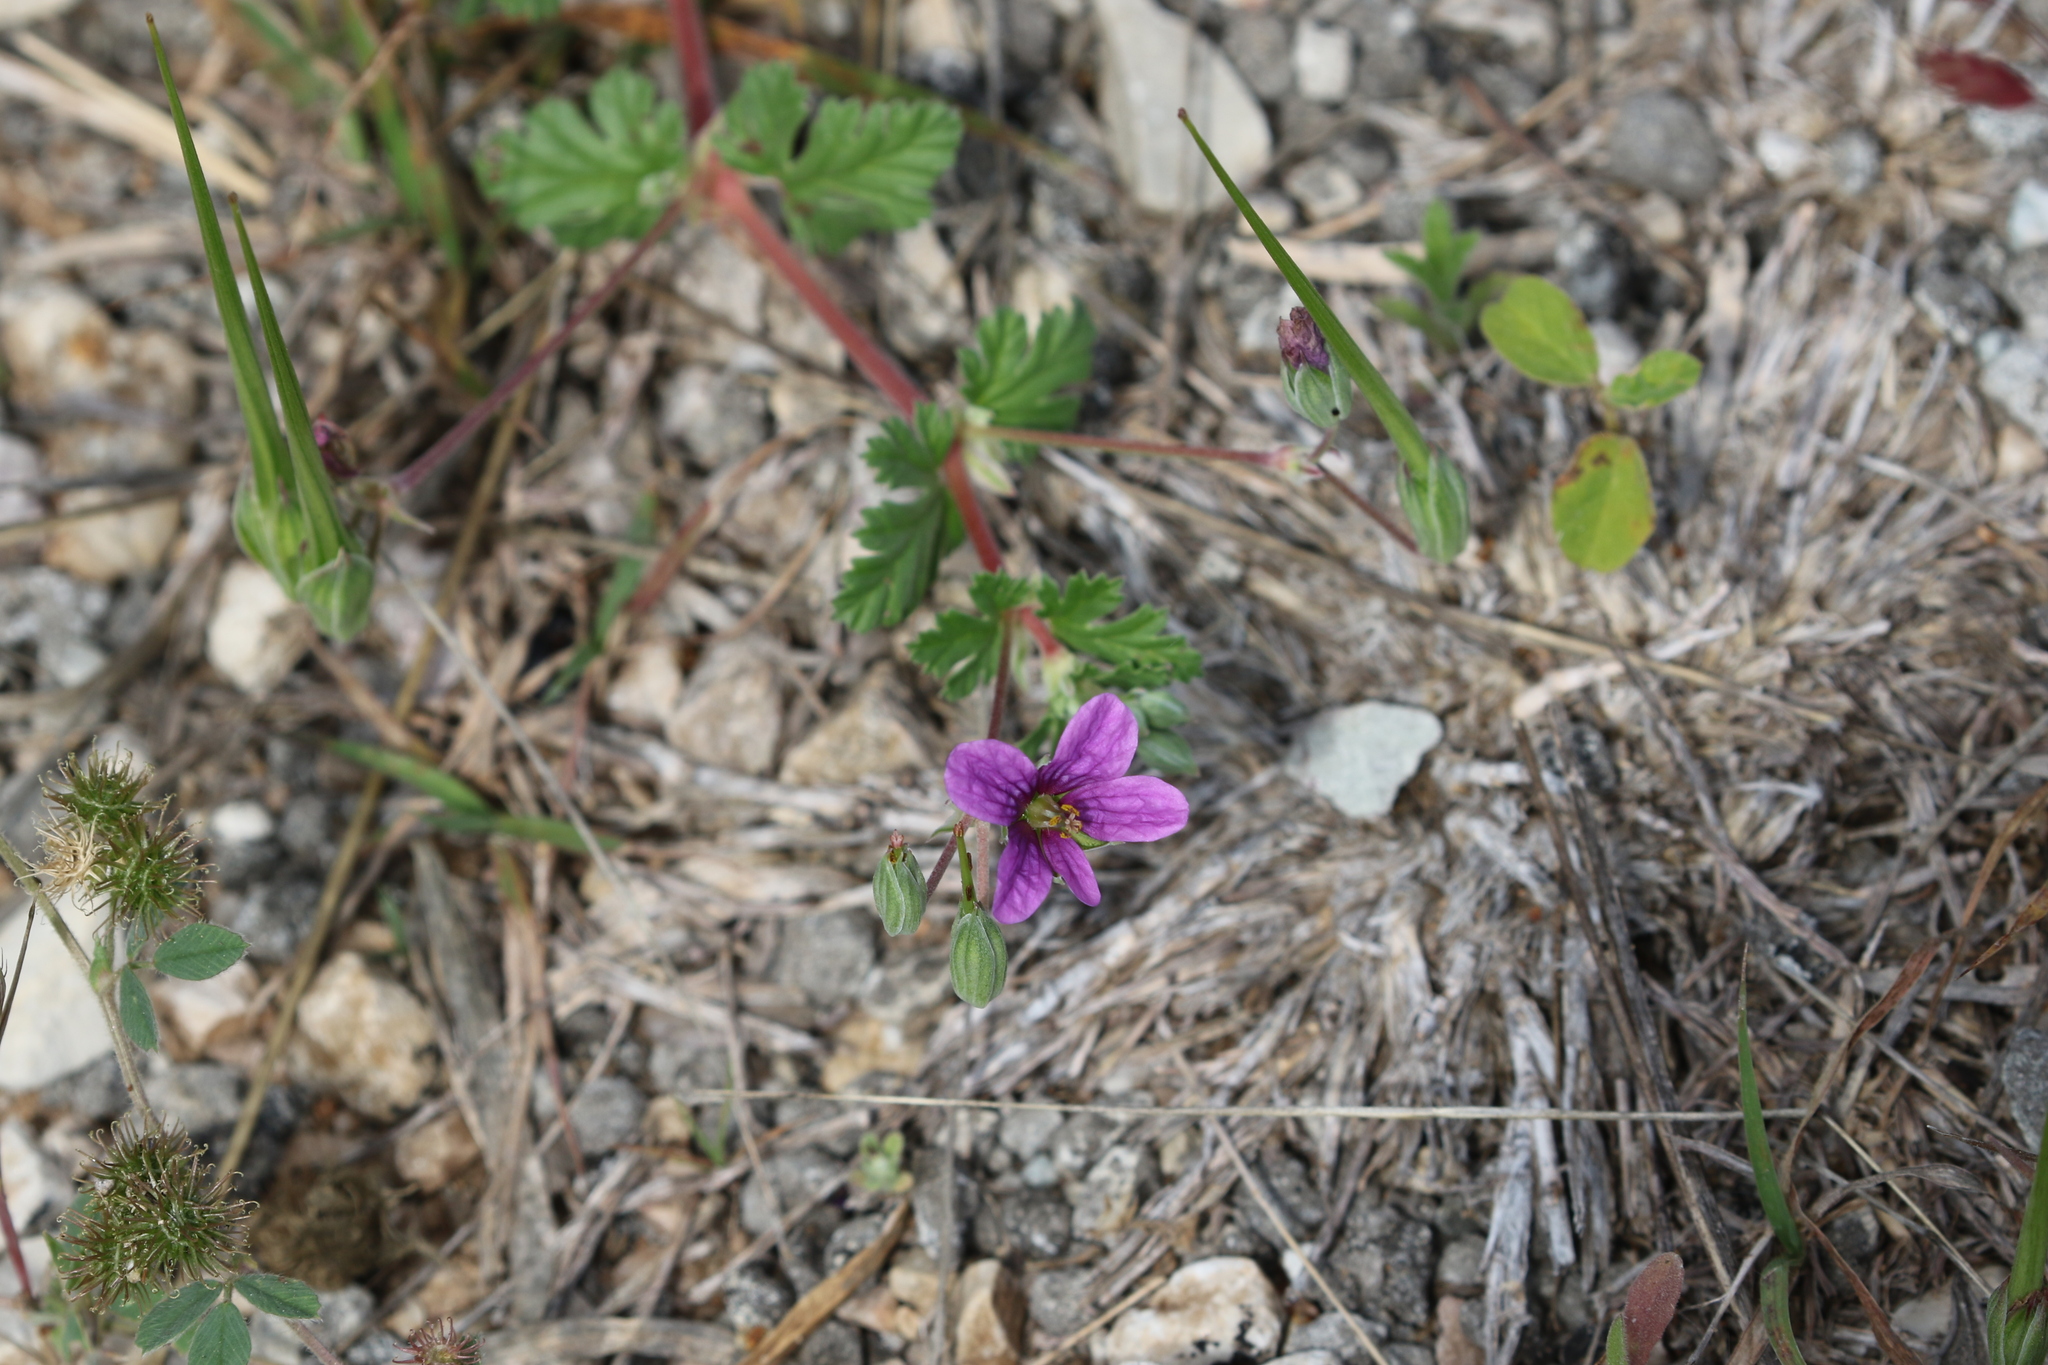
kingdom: Plantae
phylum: Tracheophyta
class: Magnoliopsida
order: Geraniales
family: Geraniaceae
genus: Erodium
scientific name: Erodium texanum
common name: Texas stork's-bill
